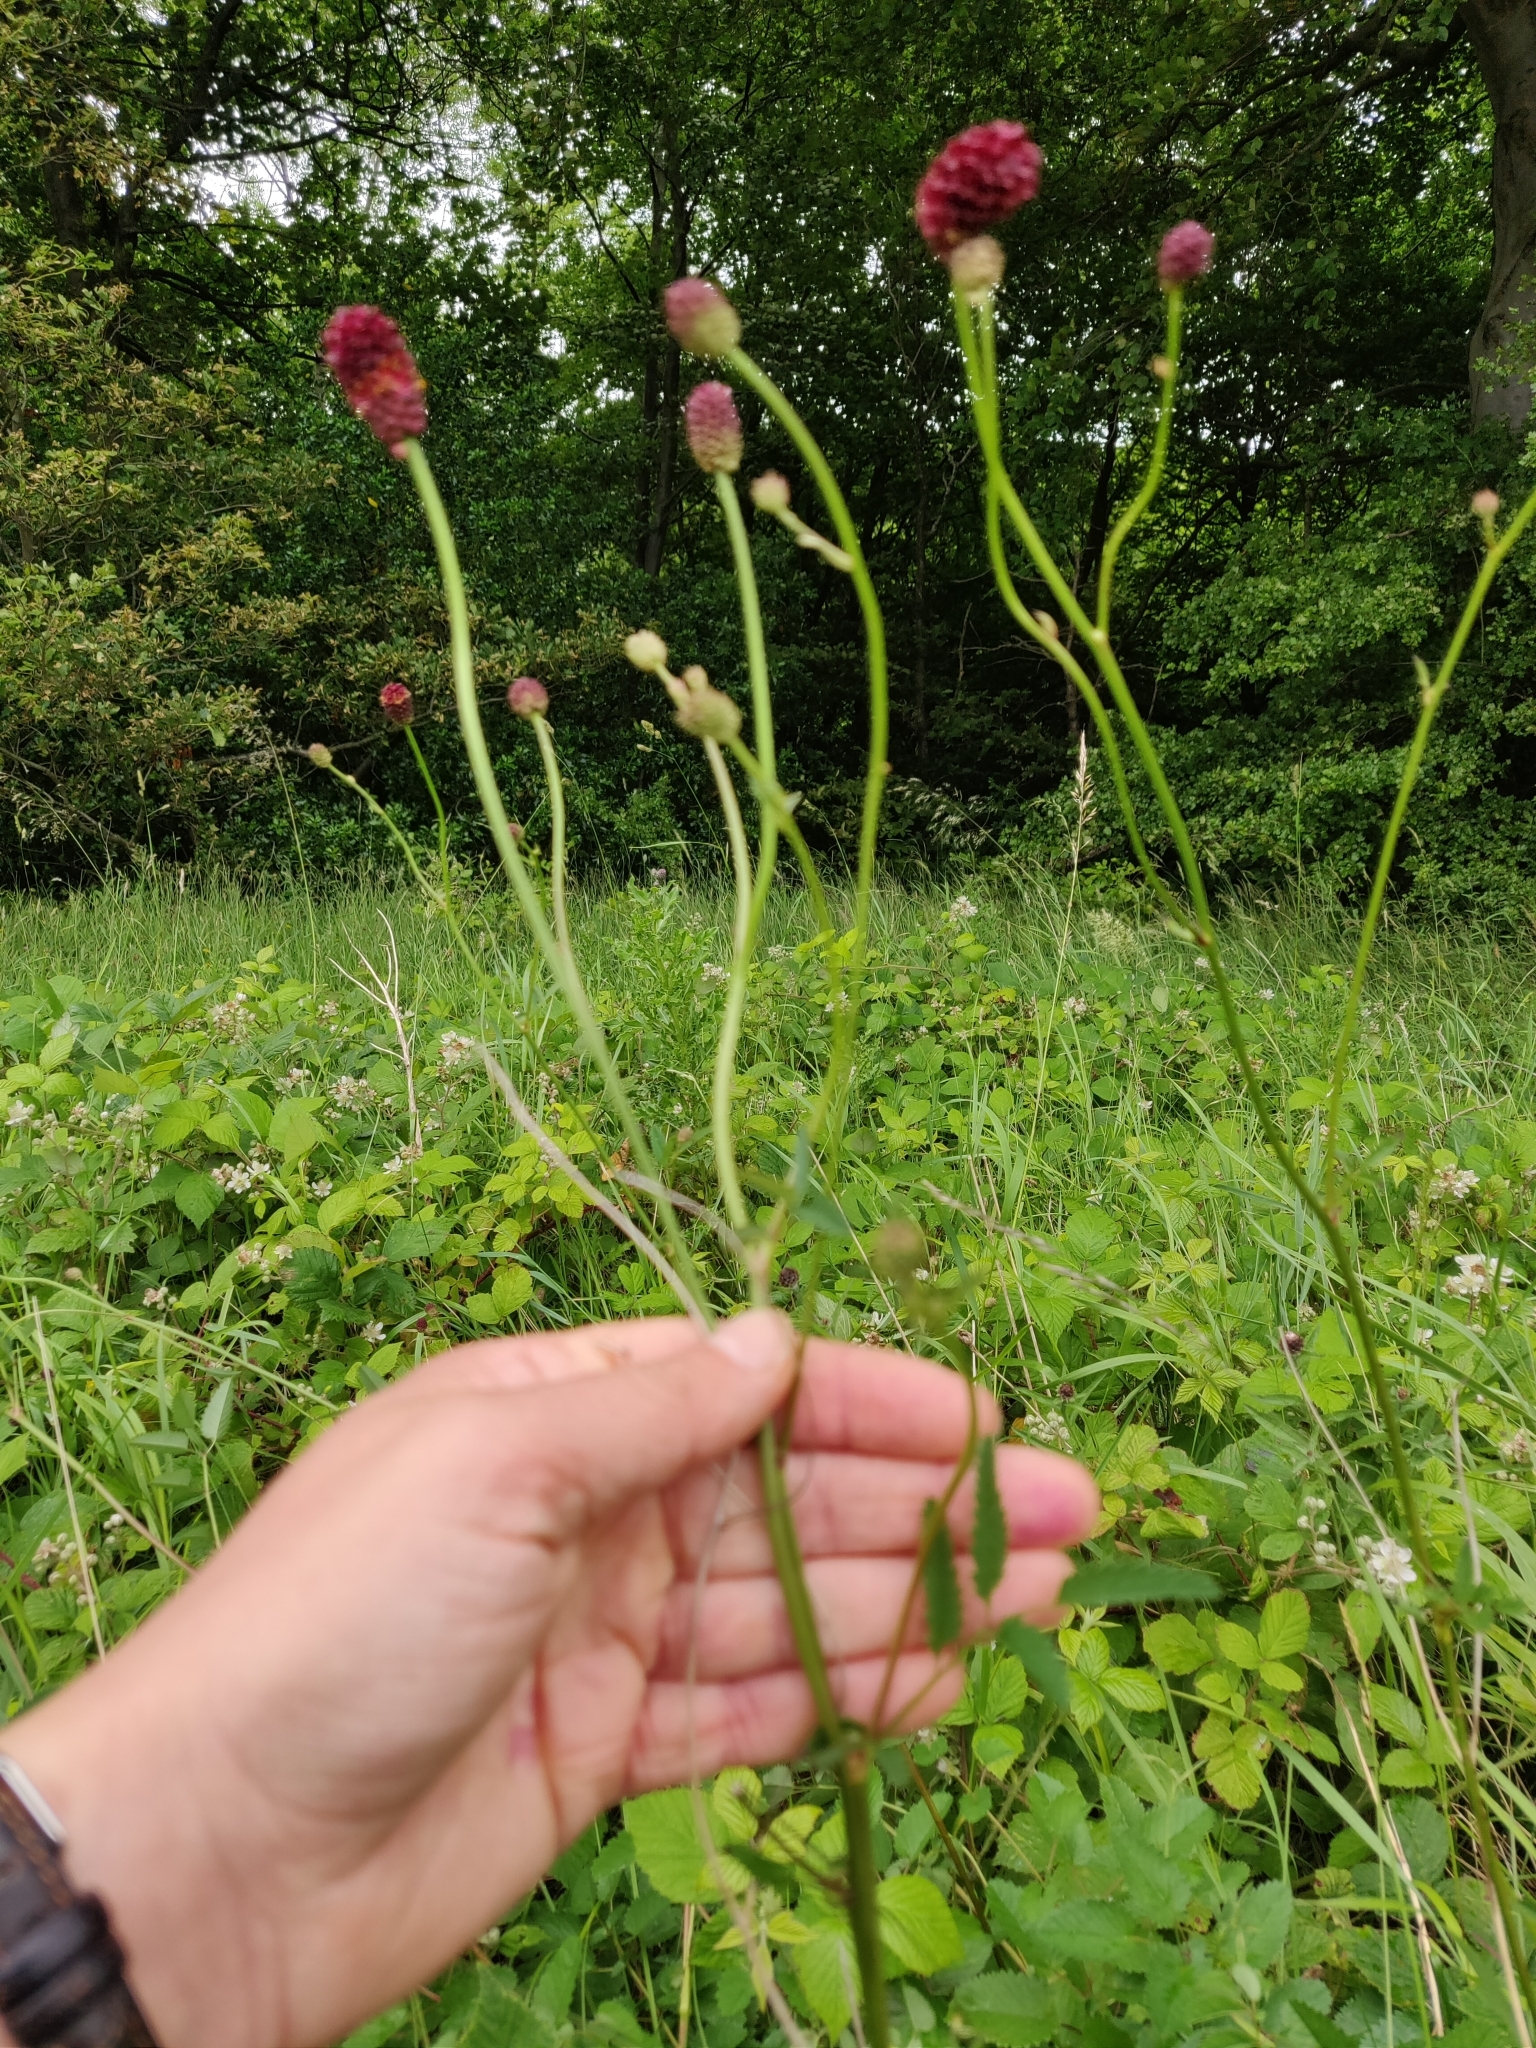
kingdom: Plantae
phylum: Tracheophyta
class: Magnoliopsida
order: Rosales
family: Rosaceae
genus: Sanguisorba
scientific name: Sanguisorba officinalis
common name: Great burnet
